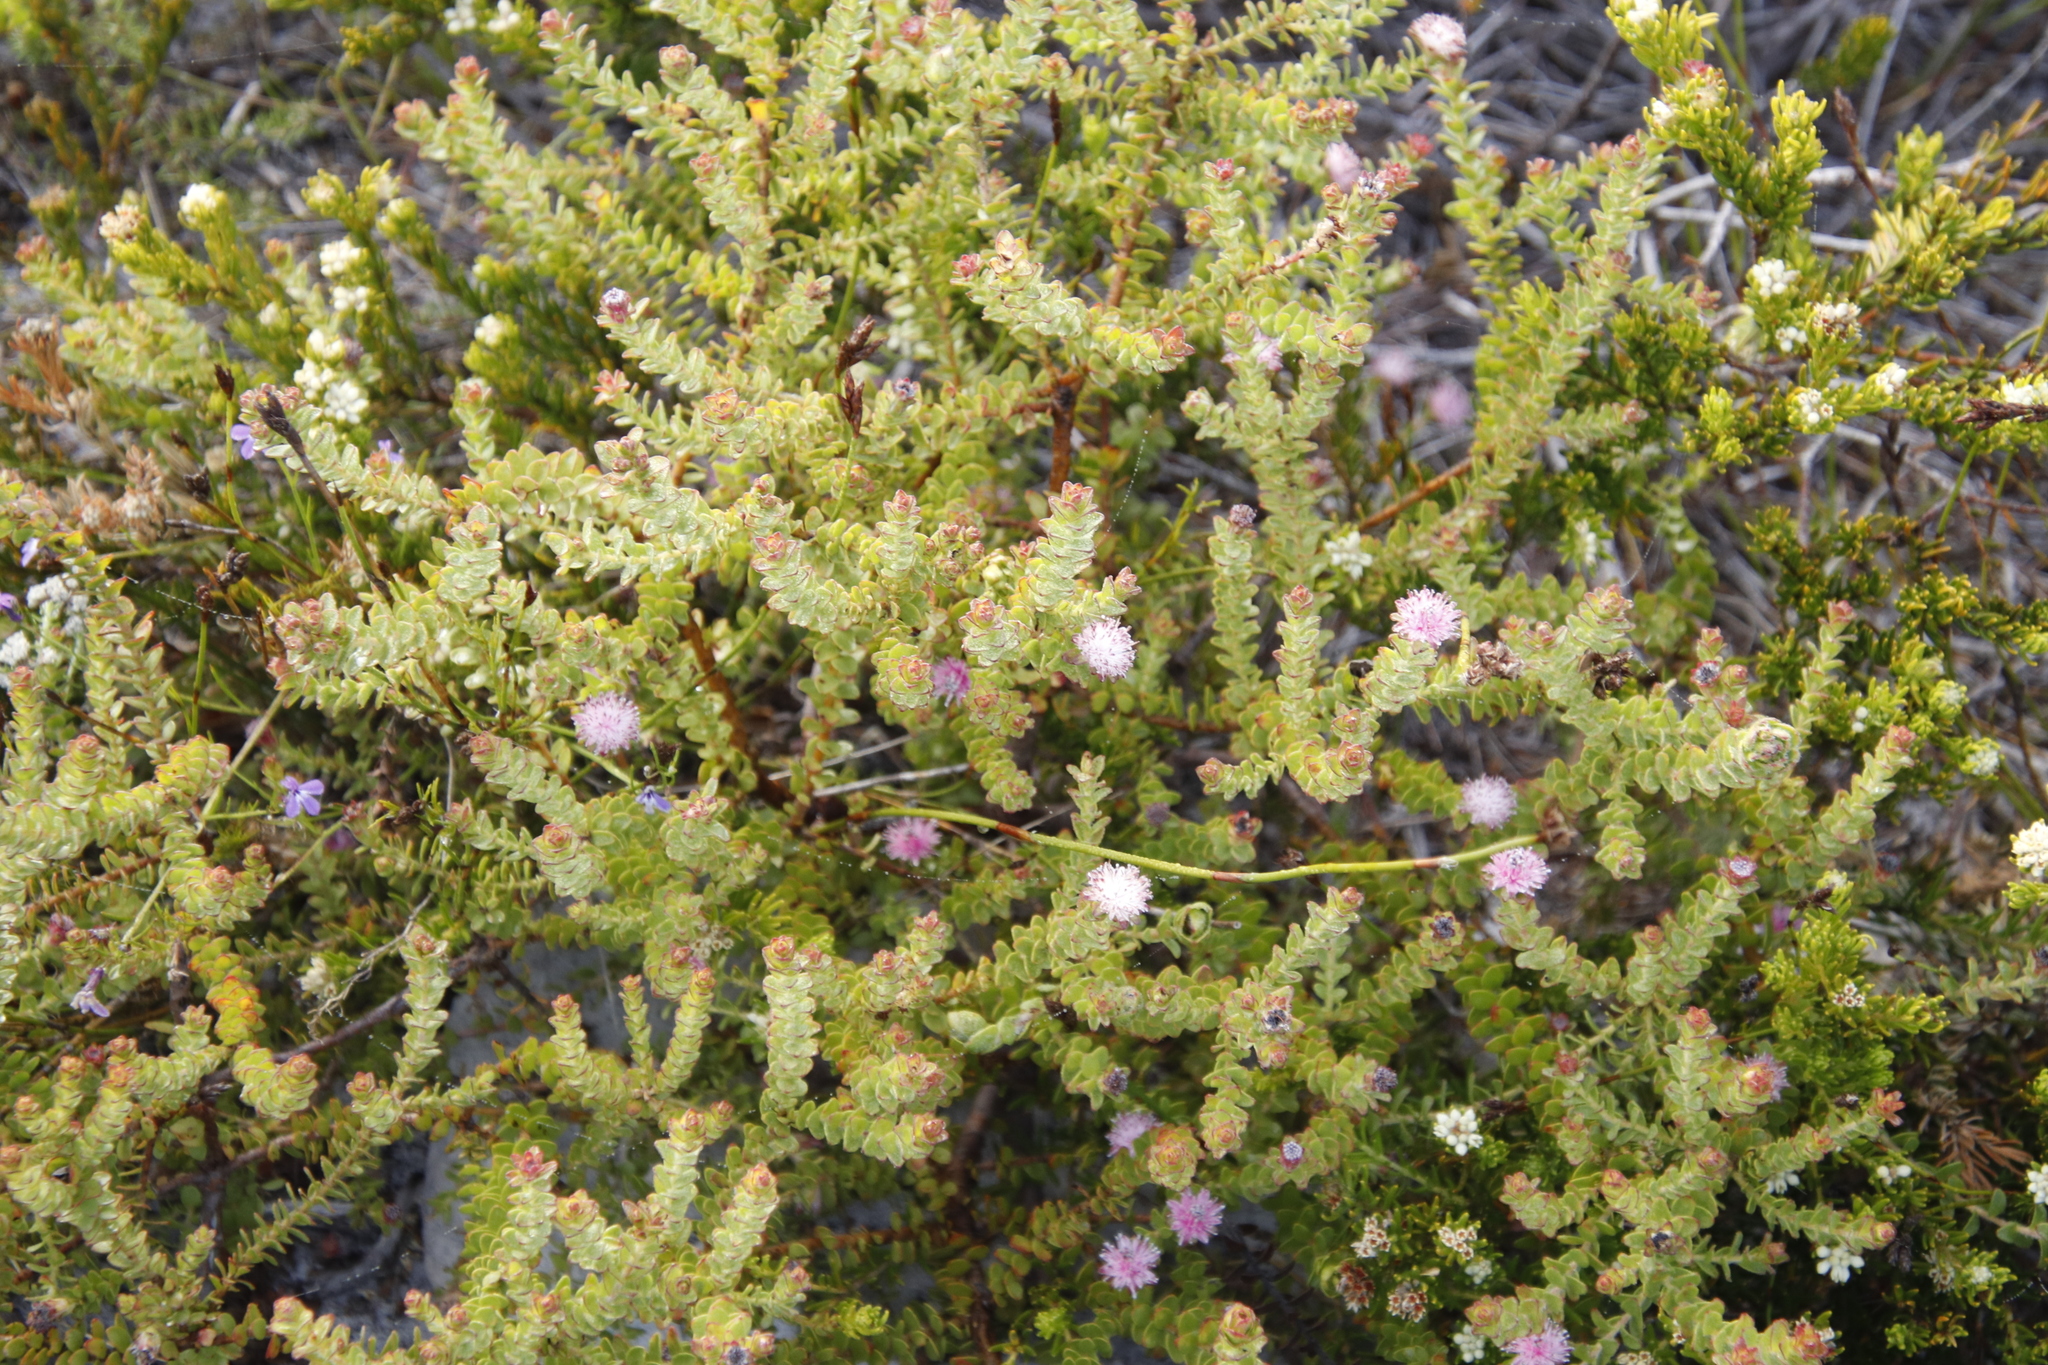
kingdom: Plantae
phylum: Tracheophyta
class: Magnoliopsida
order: Proteales
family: Proteaceae
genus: Diastella
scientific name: Diastella divaricata
